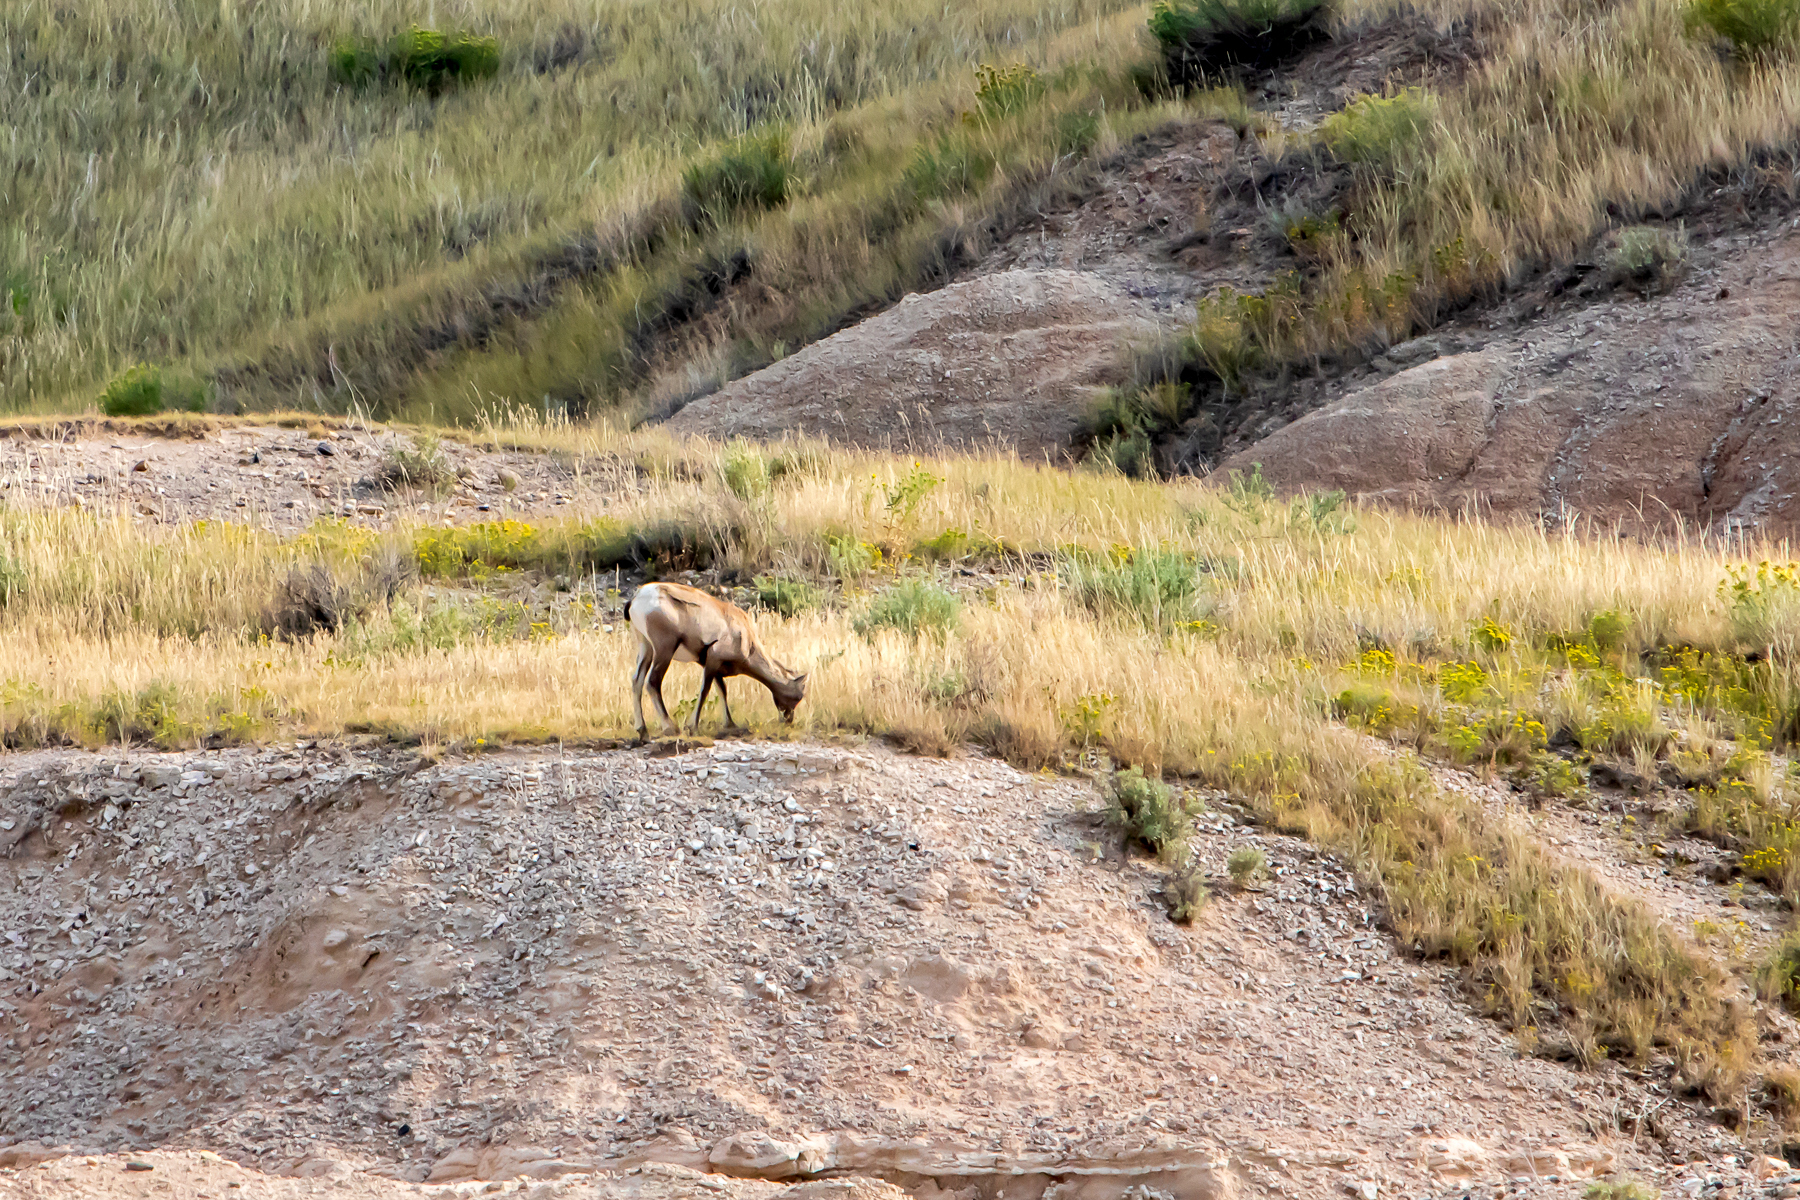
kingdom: Animalia
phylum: Chordata
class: Mammalia
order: Artiodactyla
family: Bovidae
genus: Ovis
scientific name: Ovis canadensis
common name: Bighorn sheep
